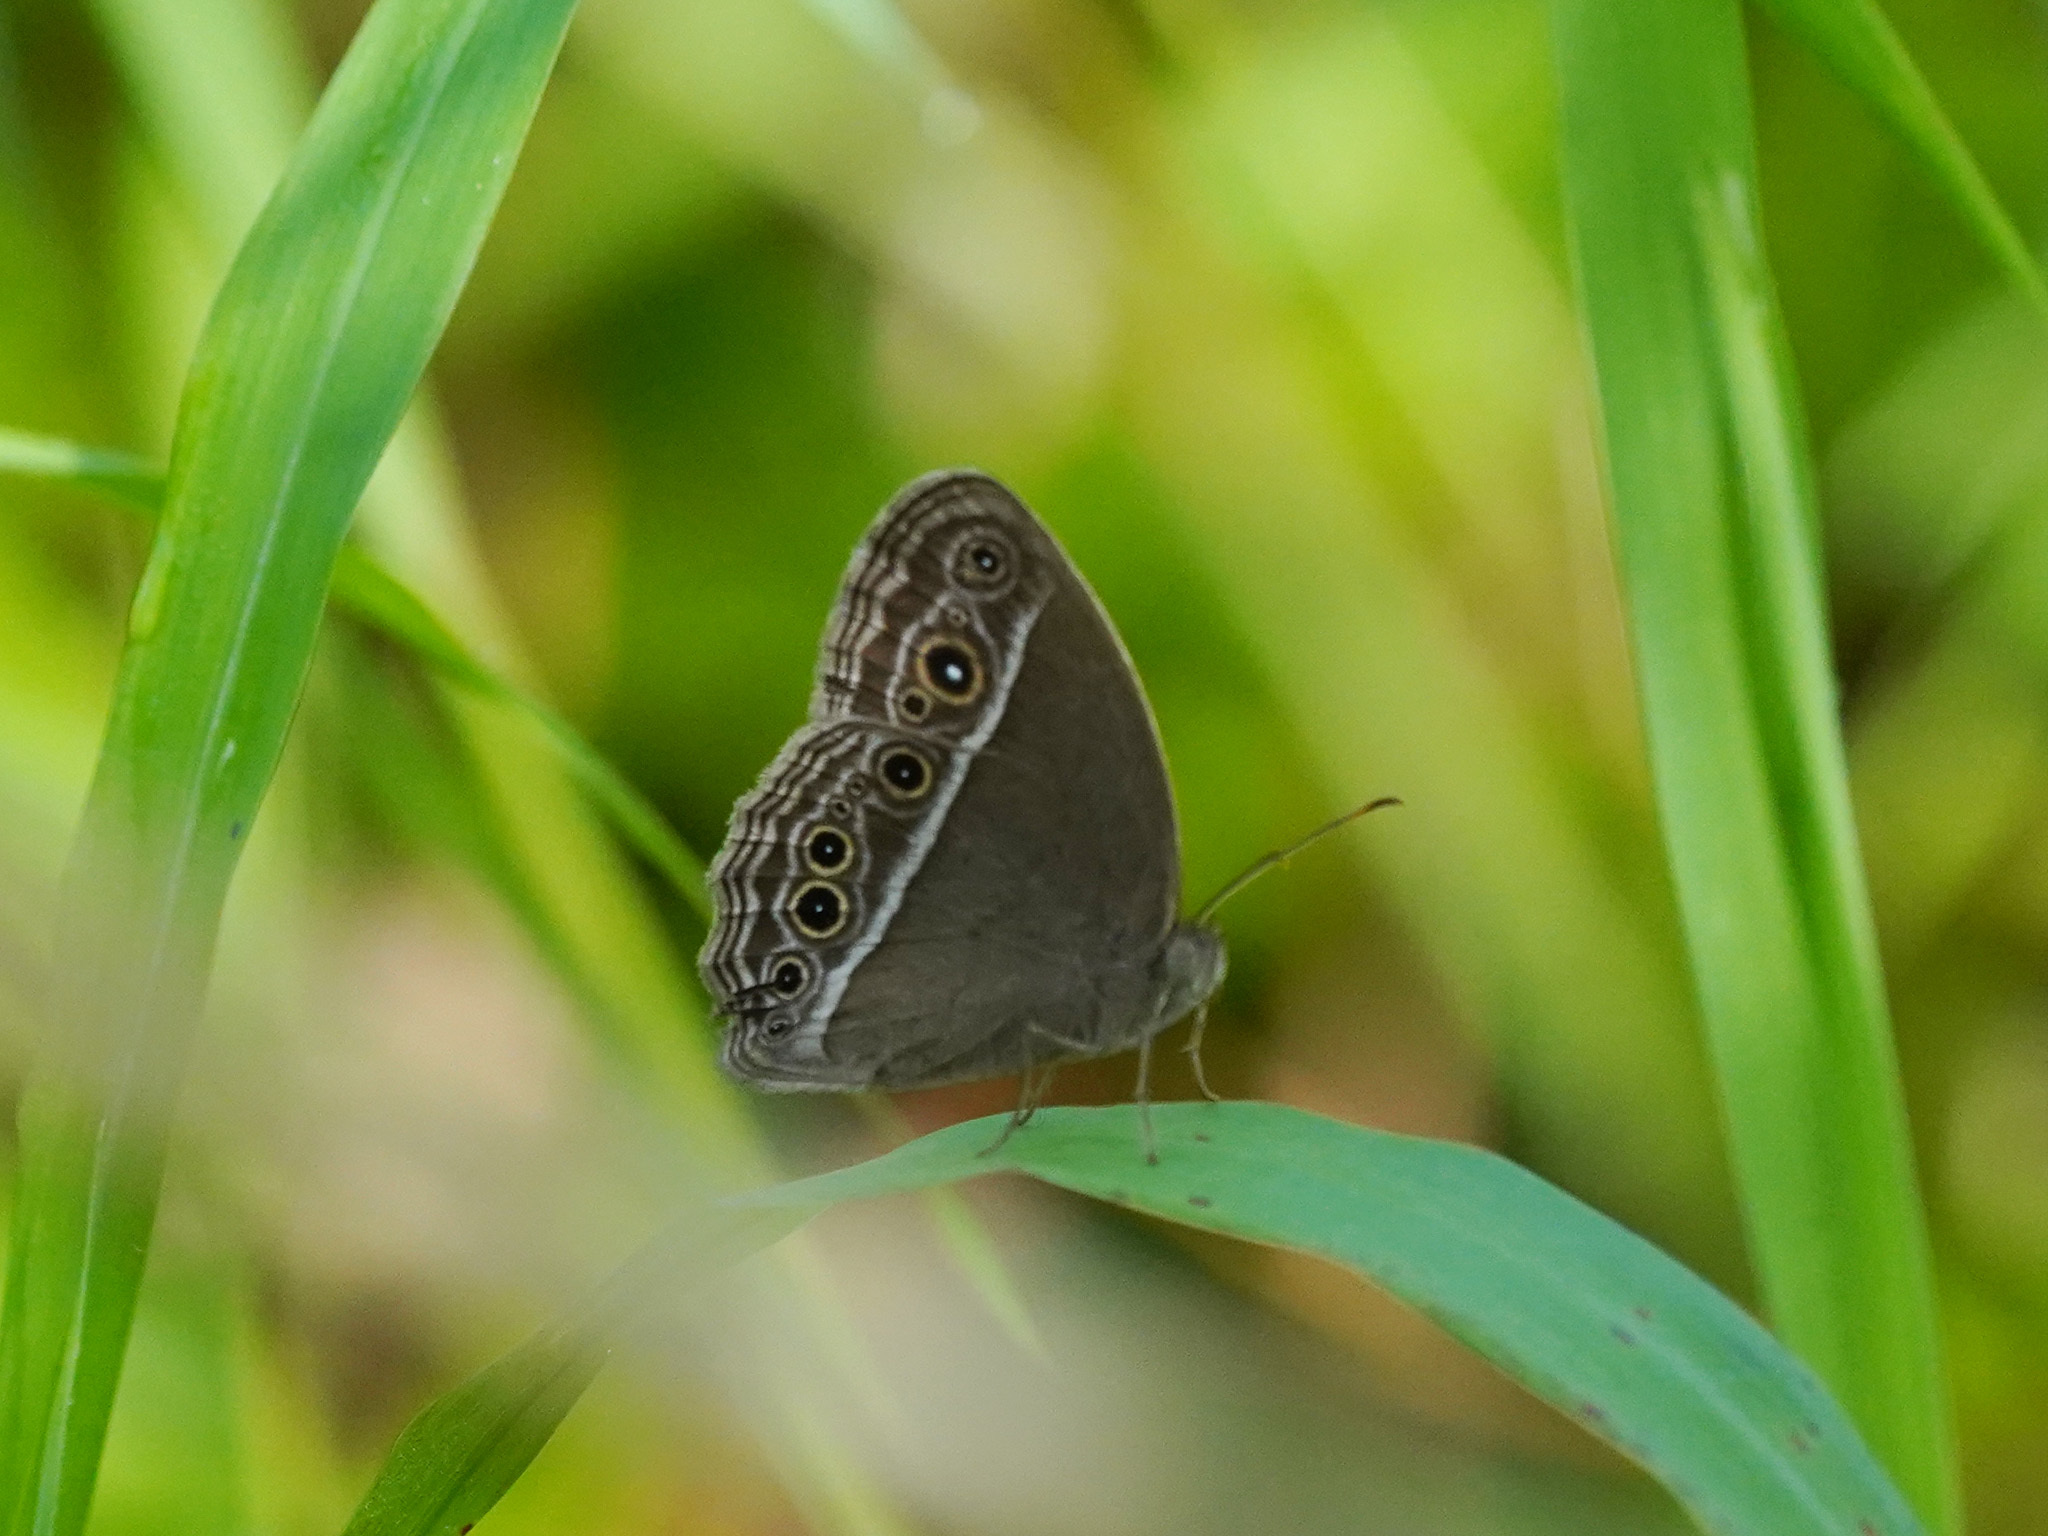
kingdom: Animalia
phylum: Arthropoda
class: Insecta
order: Lepidoptera
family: Nymphalidae
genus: Mycalesis
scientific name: Mycalesis mineus
